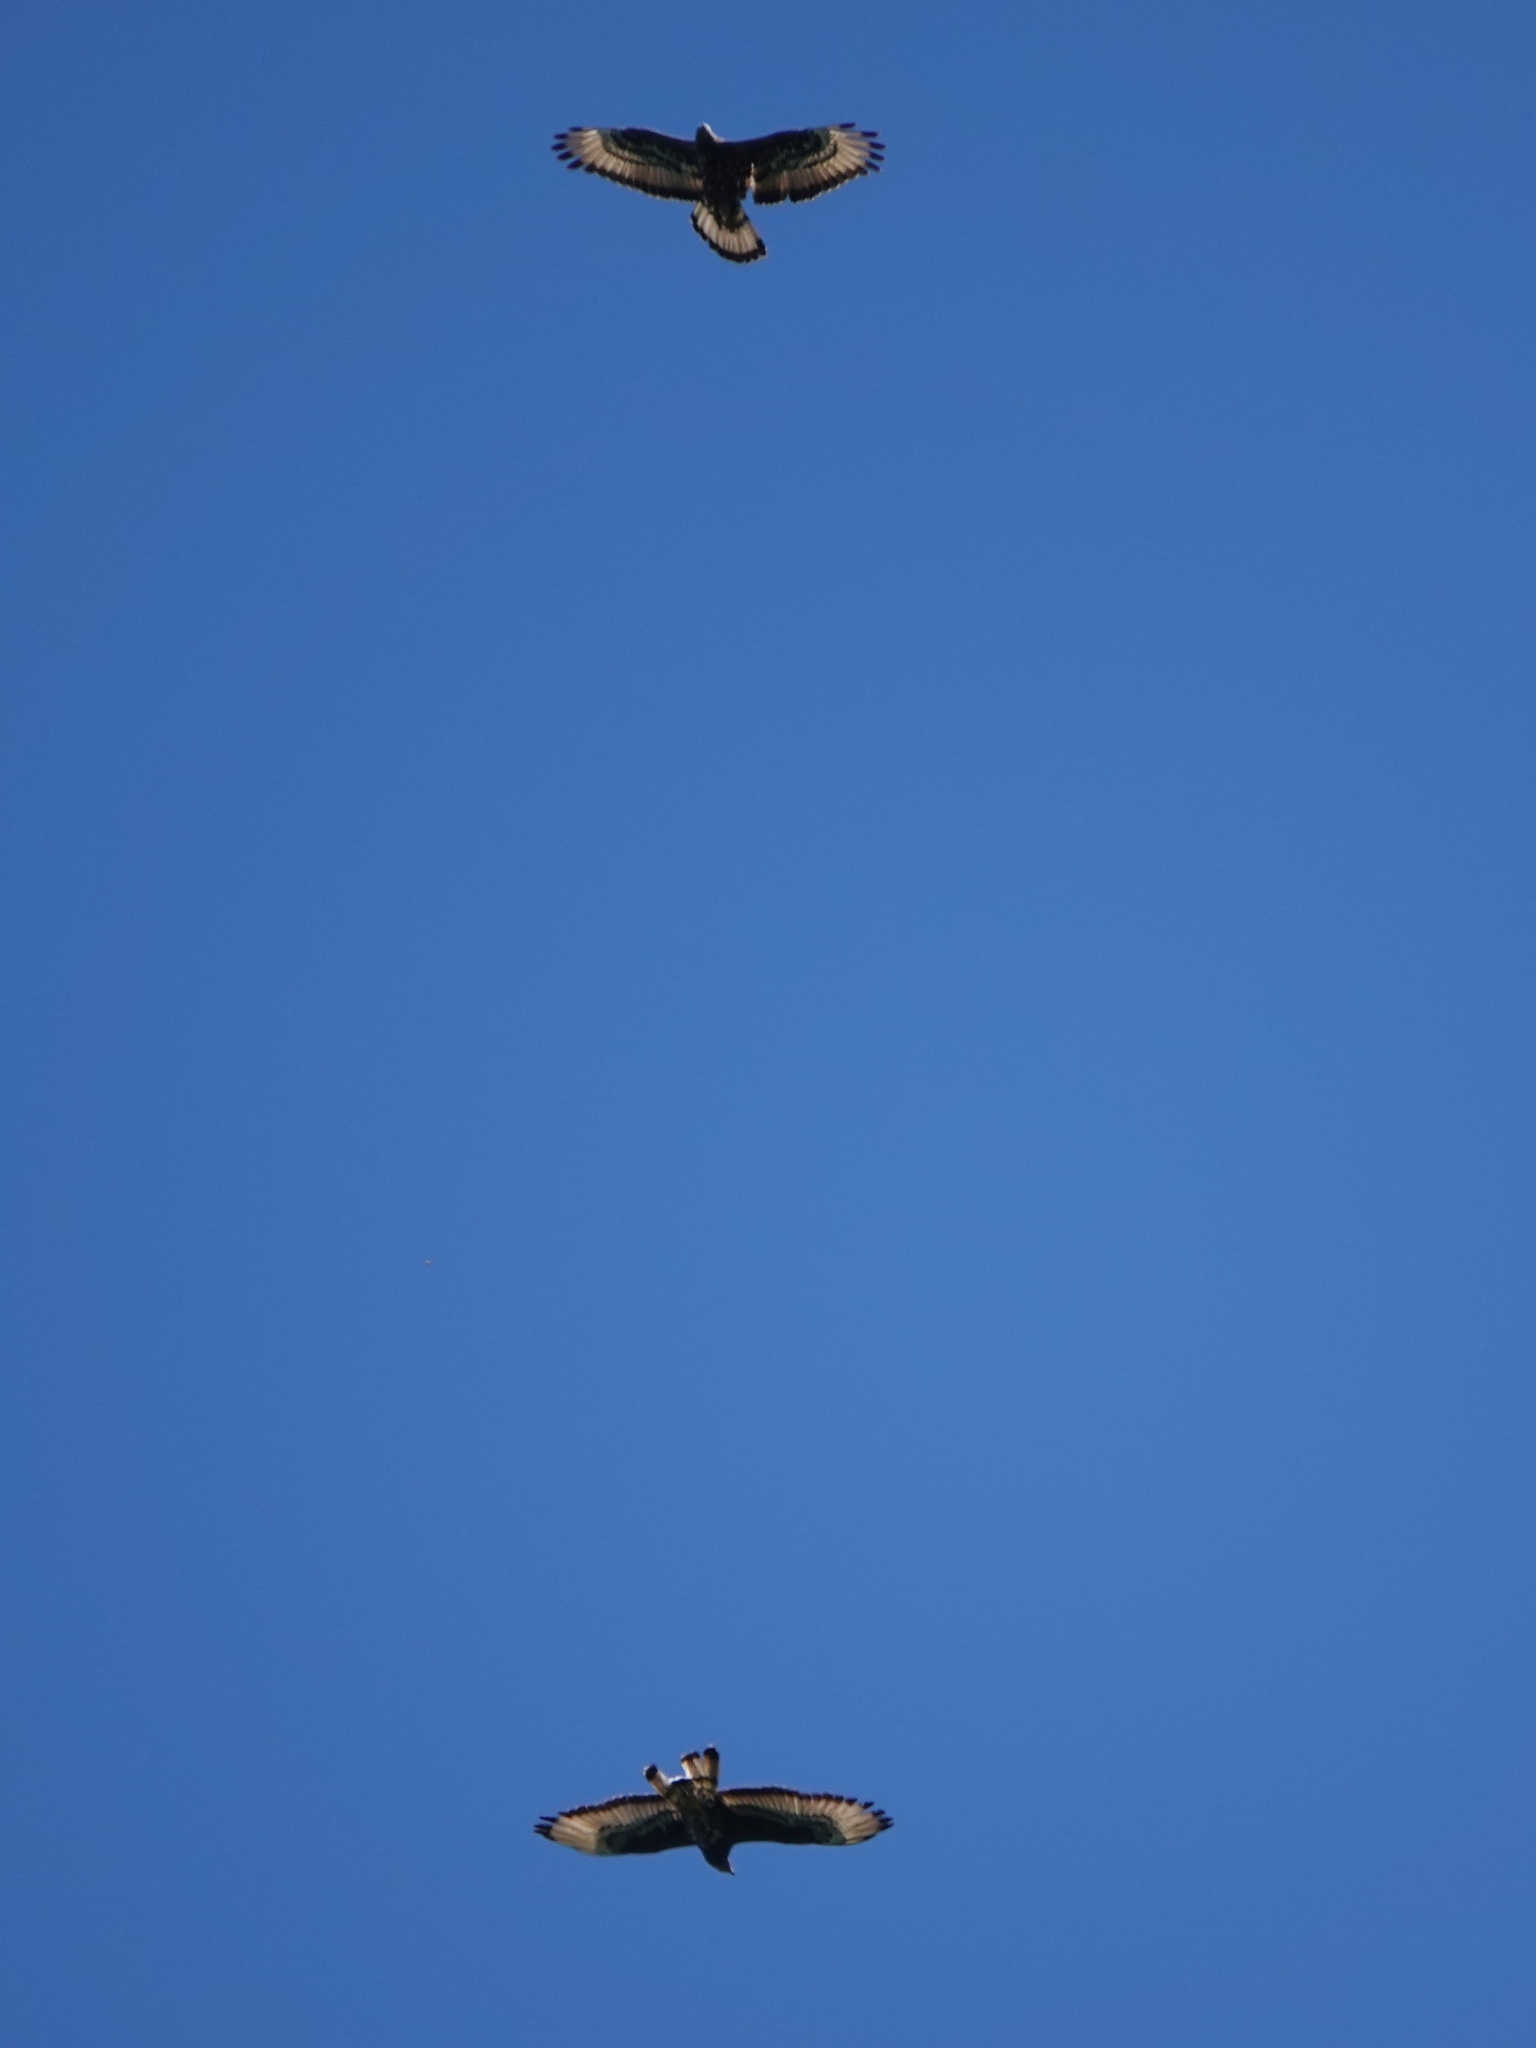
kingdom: Animalia
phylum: Chordata
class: Aves
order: Accipitriformes
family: Accipitridae
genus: Pernis
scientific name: Pernis apivorus
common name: European honey buzzard
